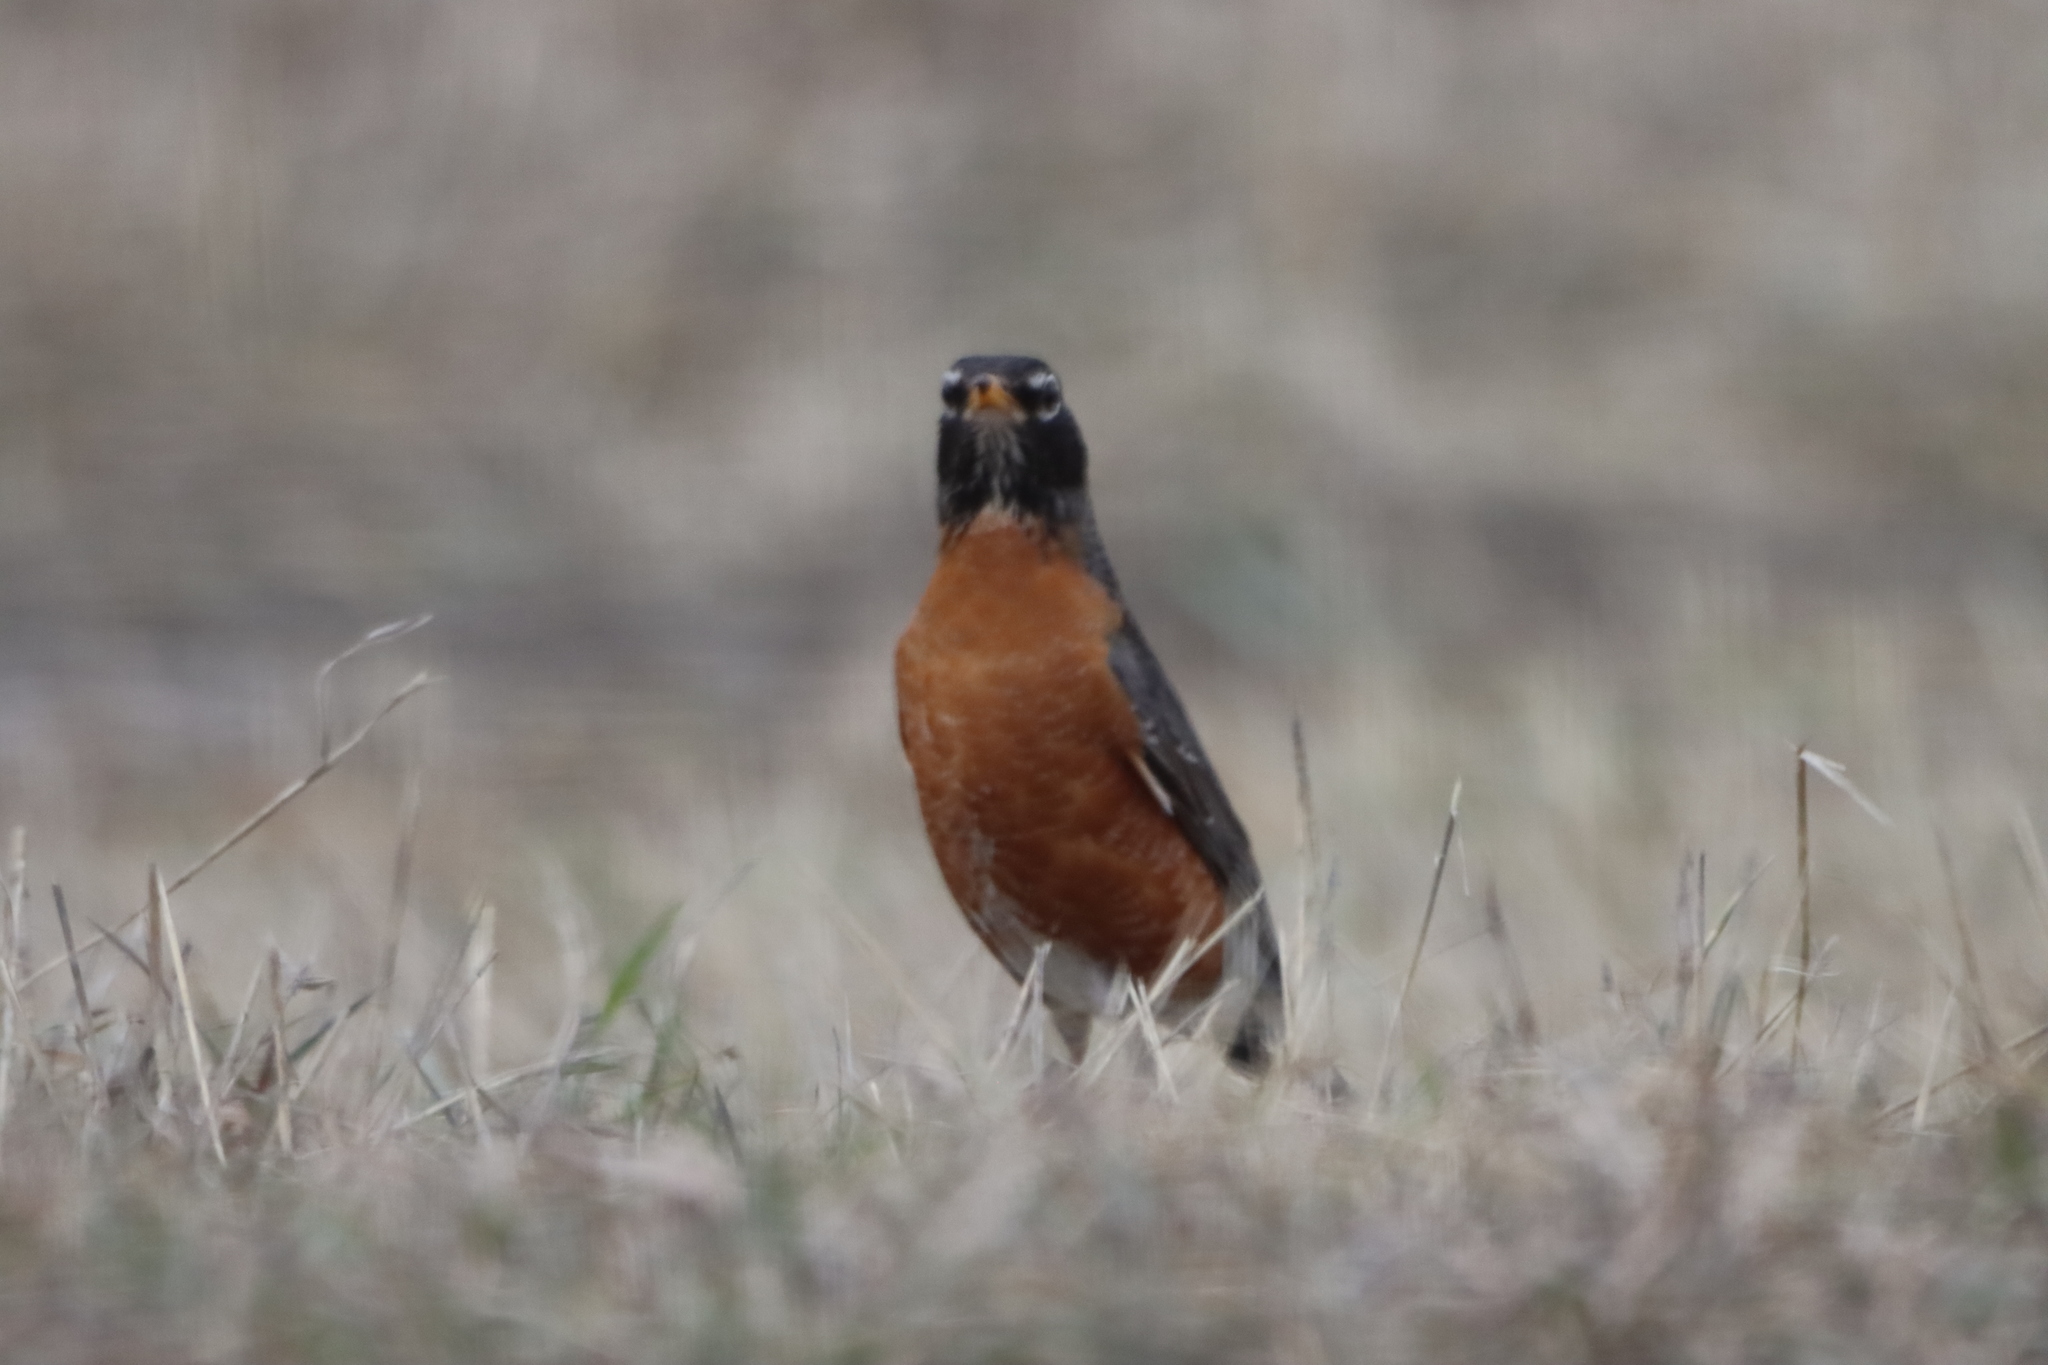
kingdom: Animalia
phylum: Chordata
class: Aves
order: Passeriformes
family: Turdidae
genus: Turdus
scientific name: Turdus migratorius
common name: American robin
